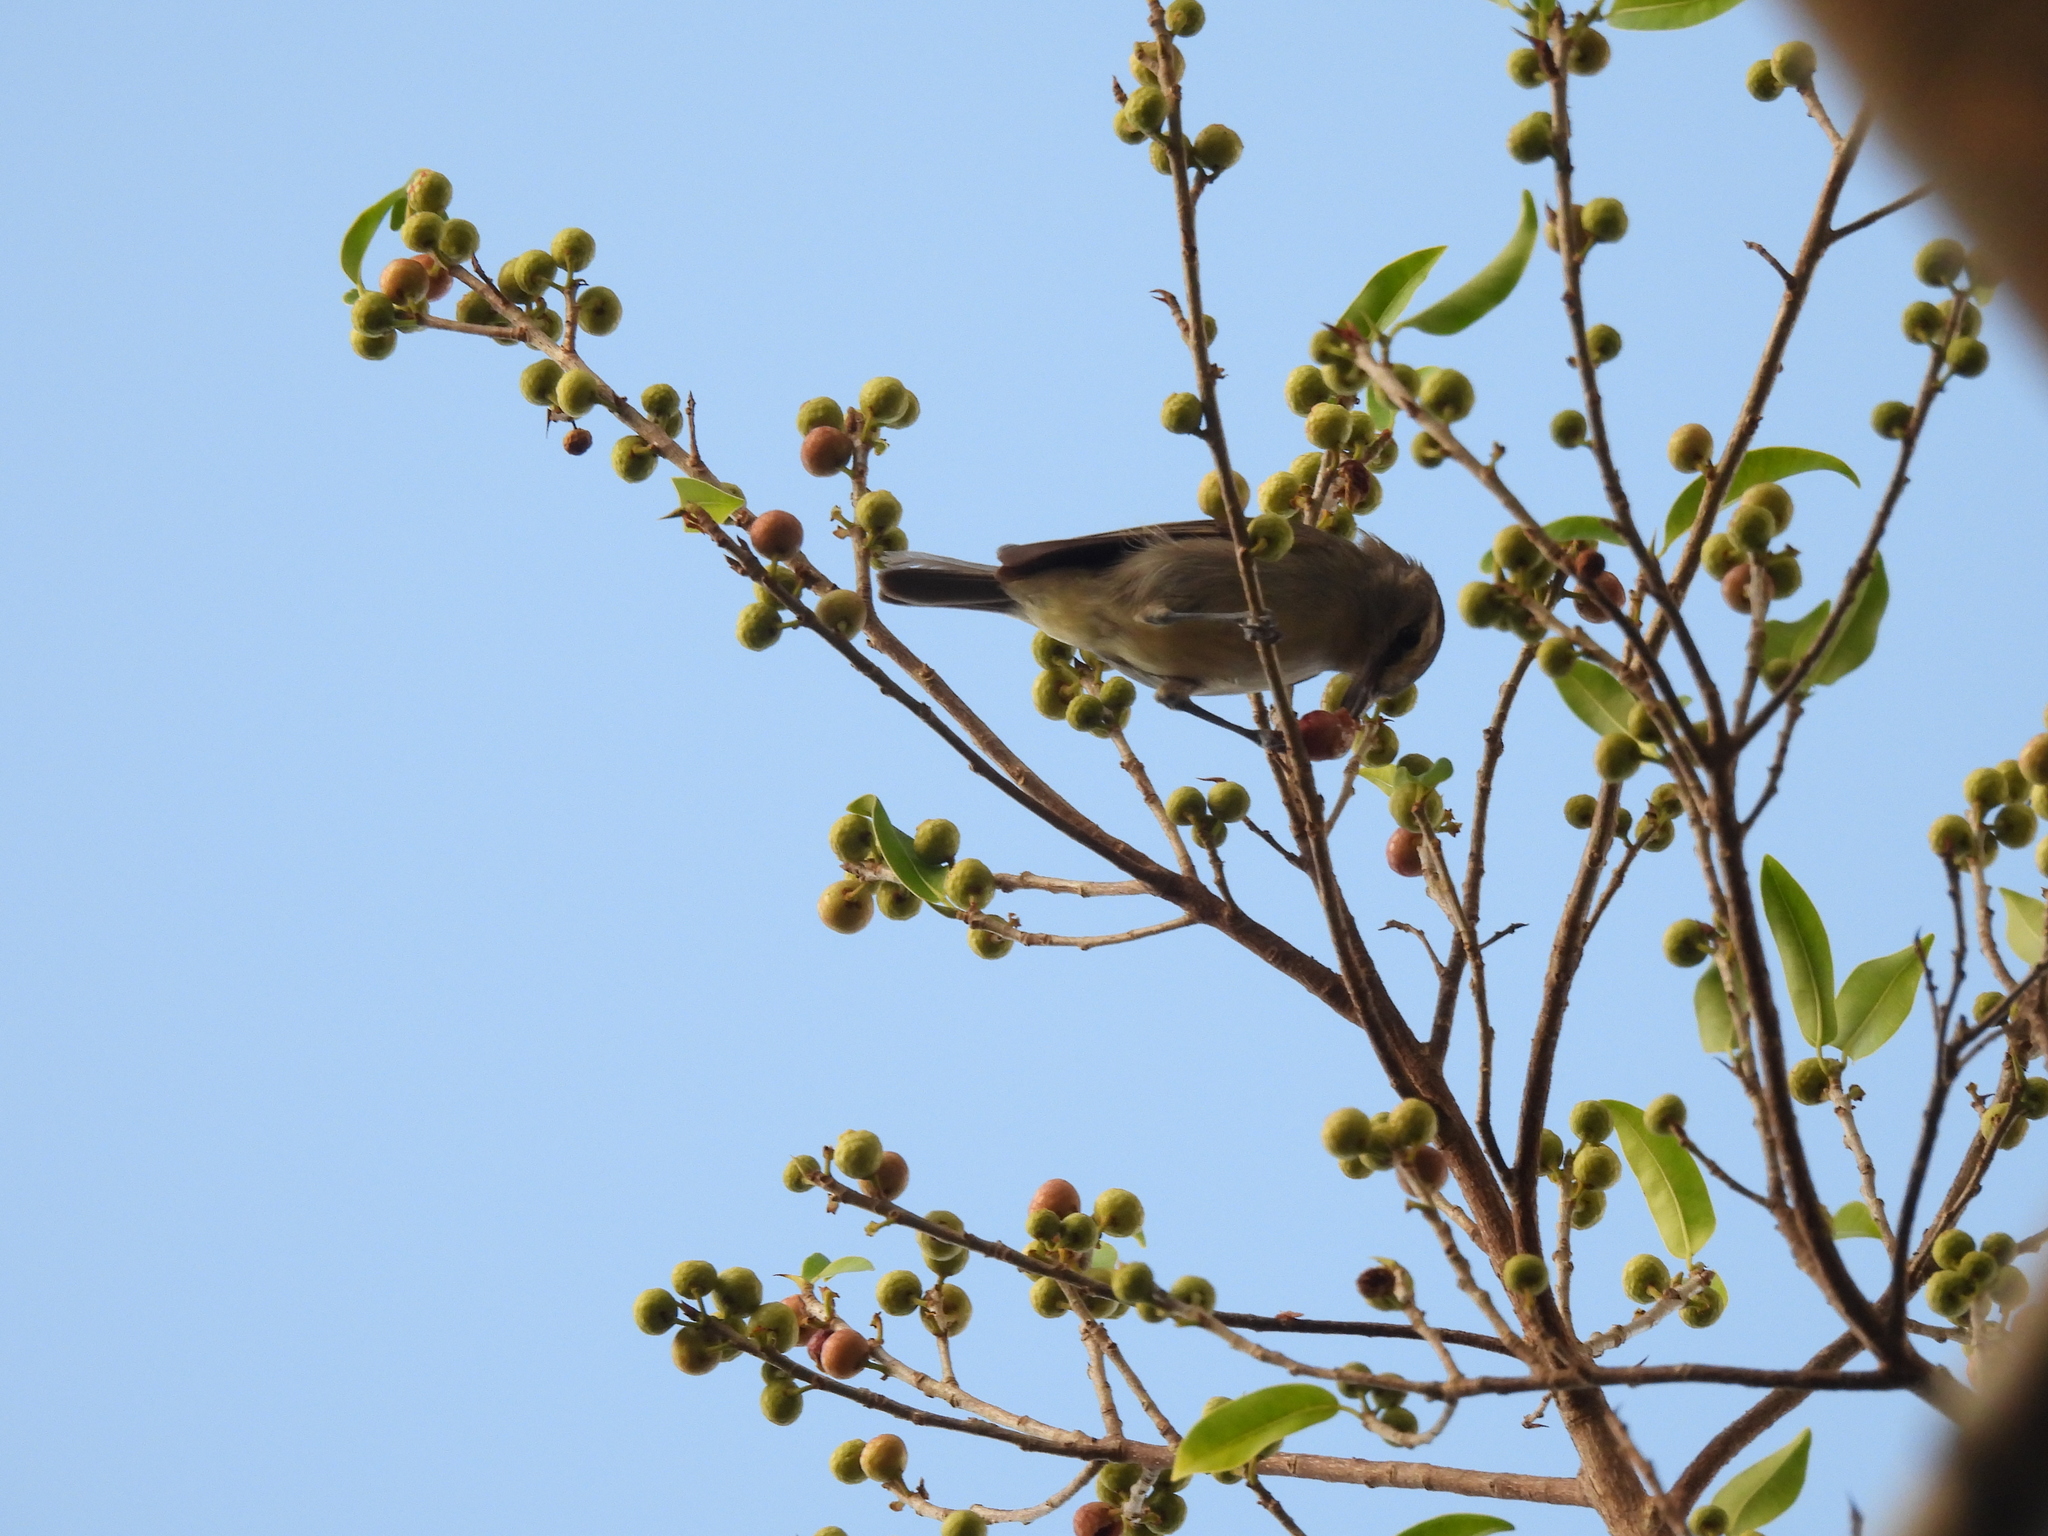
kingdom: Animalia
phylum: Chordata
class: Aves
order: Passeriformes
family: Vireonidae
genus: Vireo
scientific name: Vireo magister
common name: Yucatan vireo
